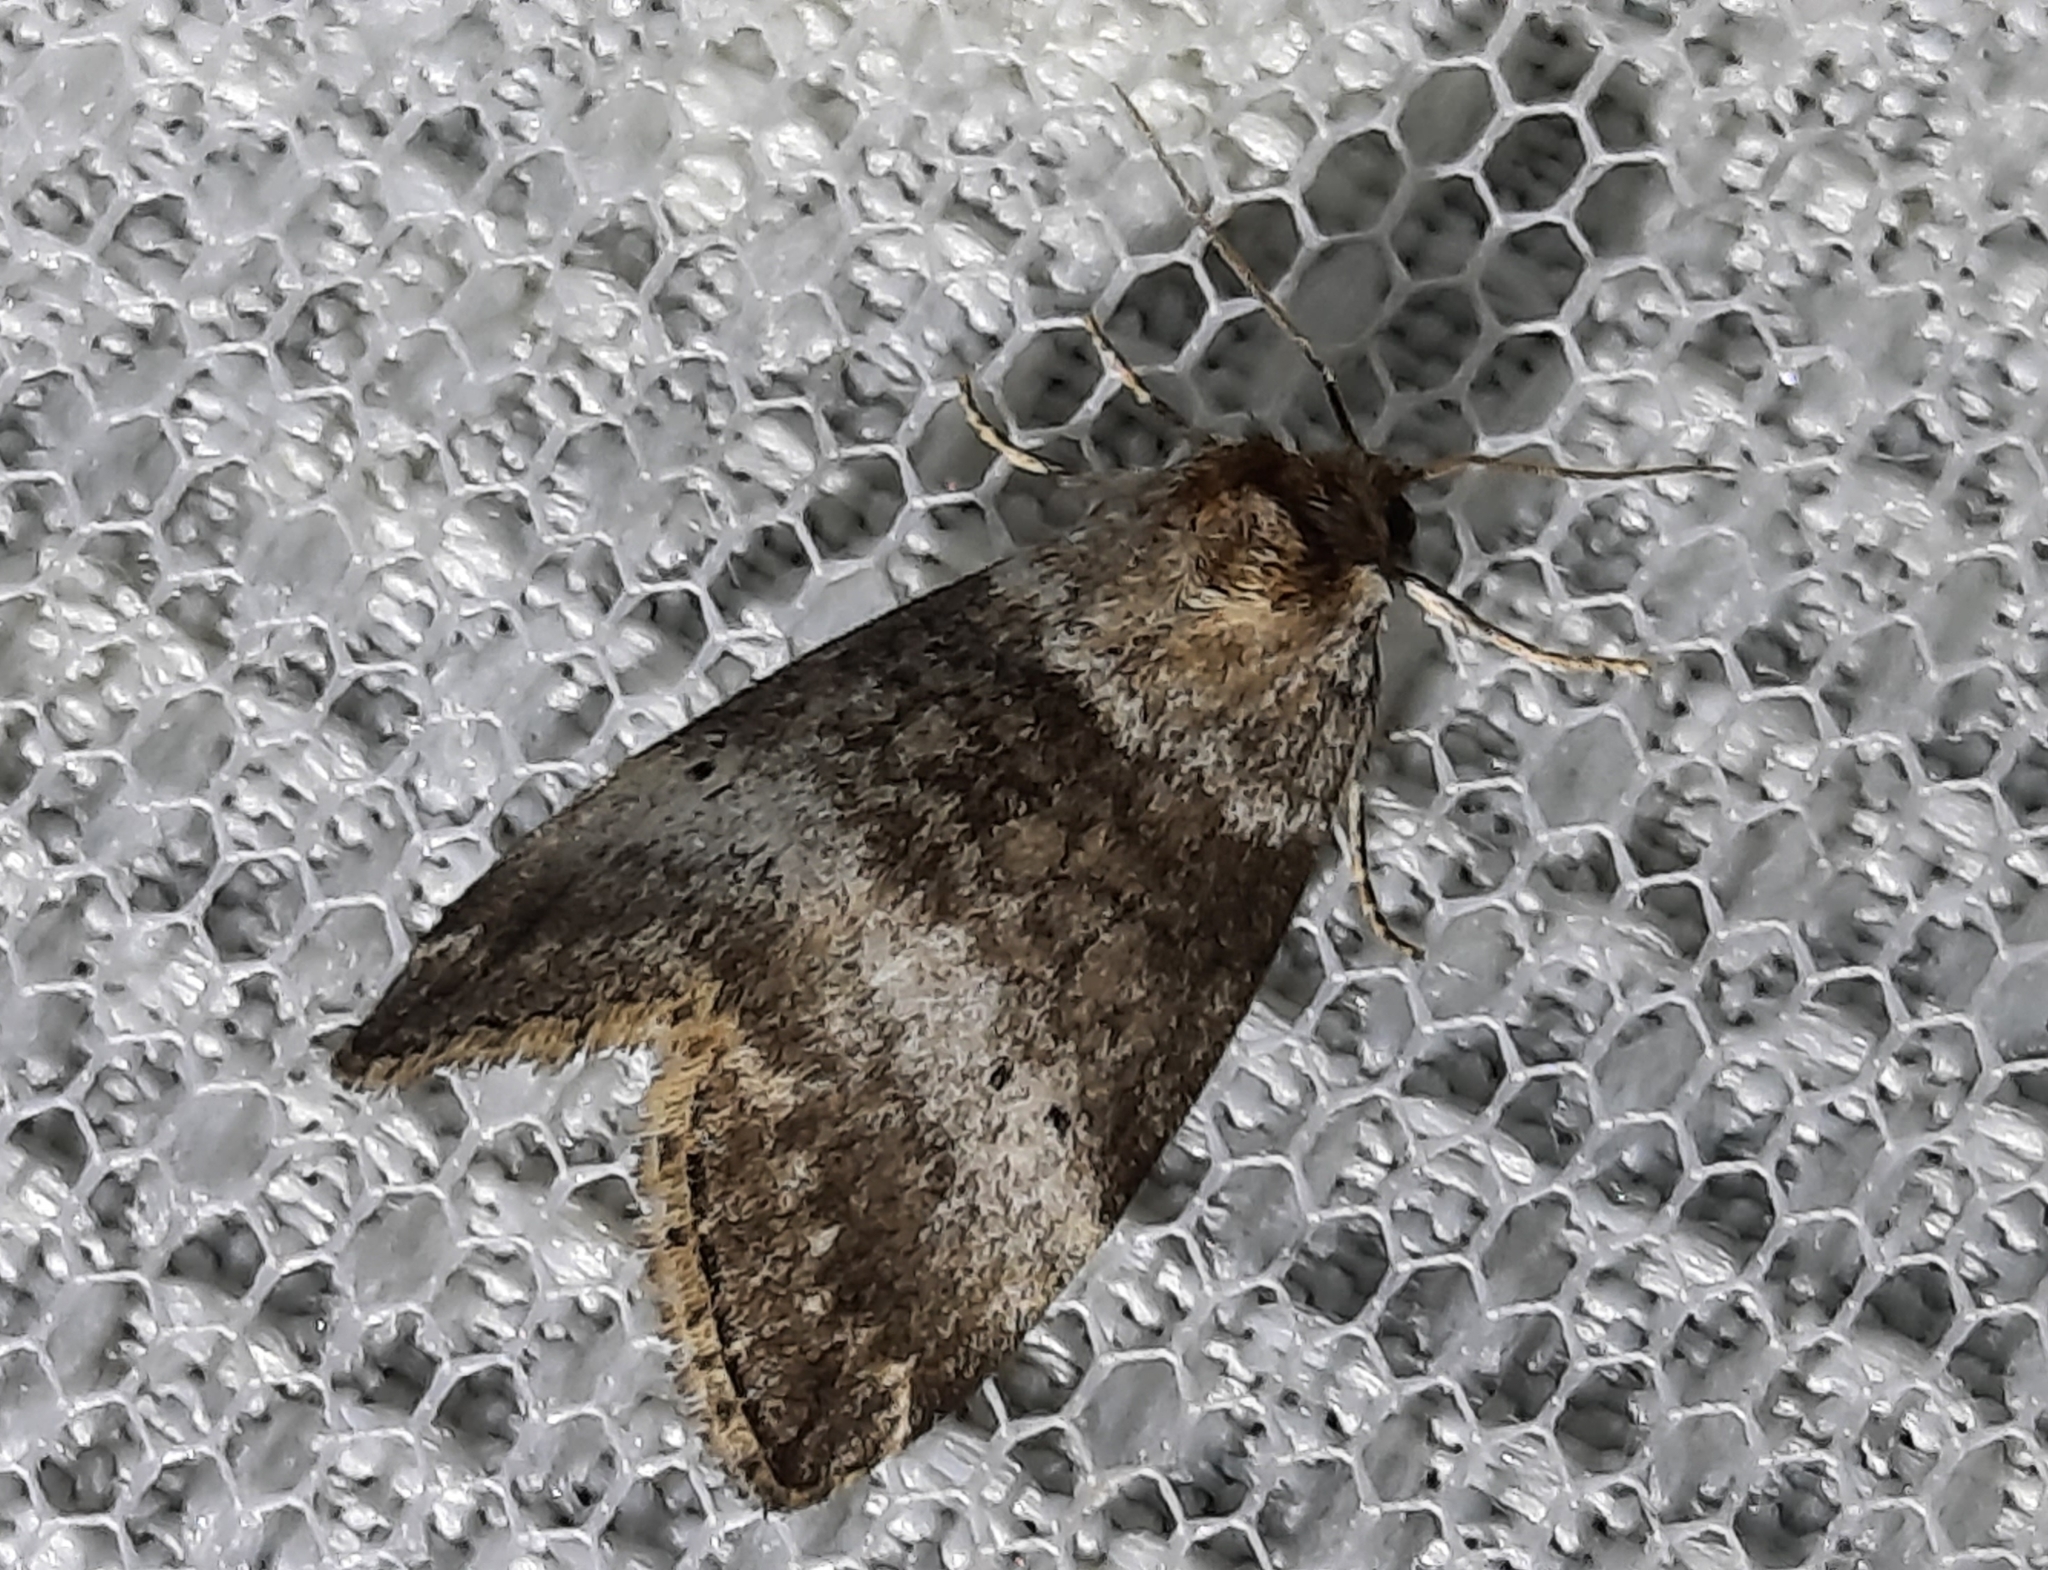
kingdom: Animalia
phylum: Arthropoda
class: Insecta
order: Lepidoptera
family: Drepanidae
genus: Ochropacha
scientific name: Ochropacha duplaris
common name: Common lutestring
